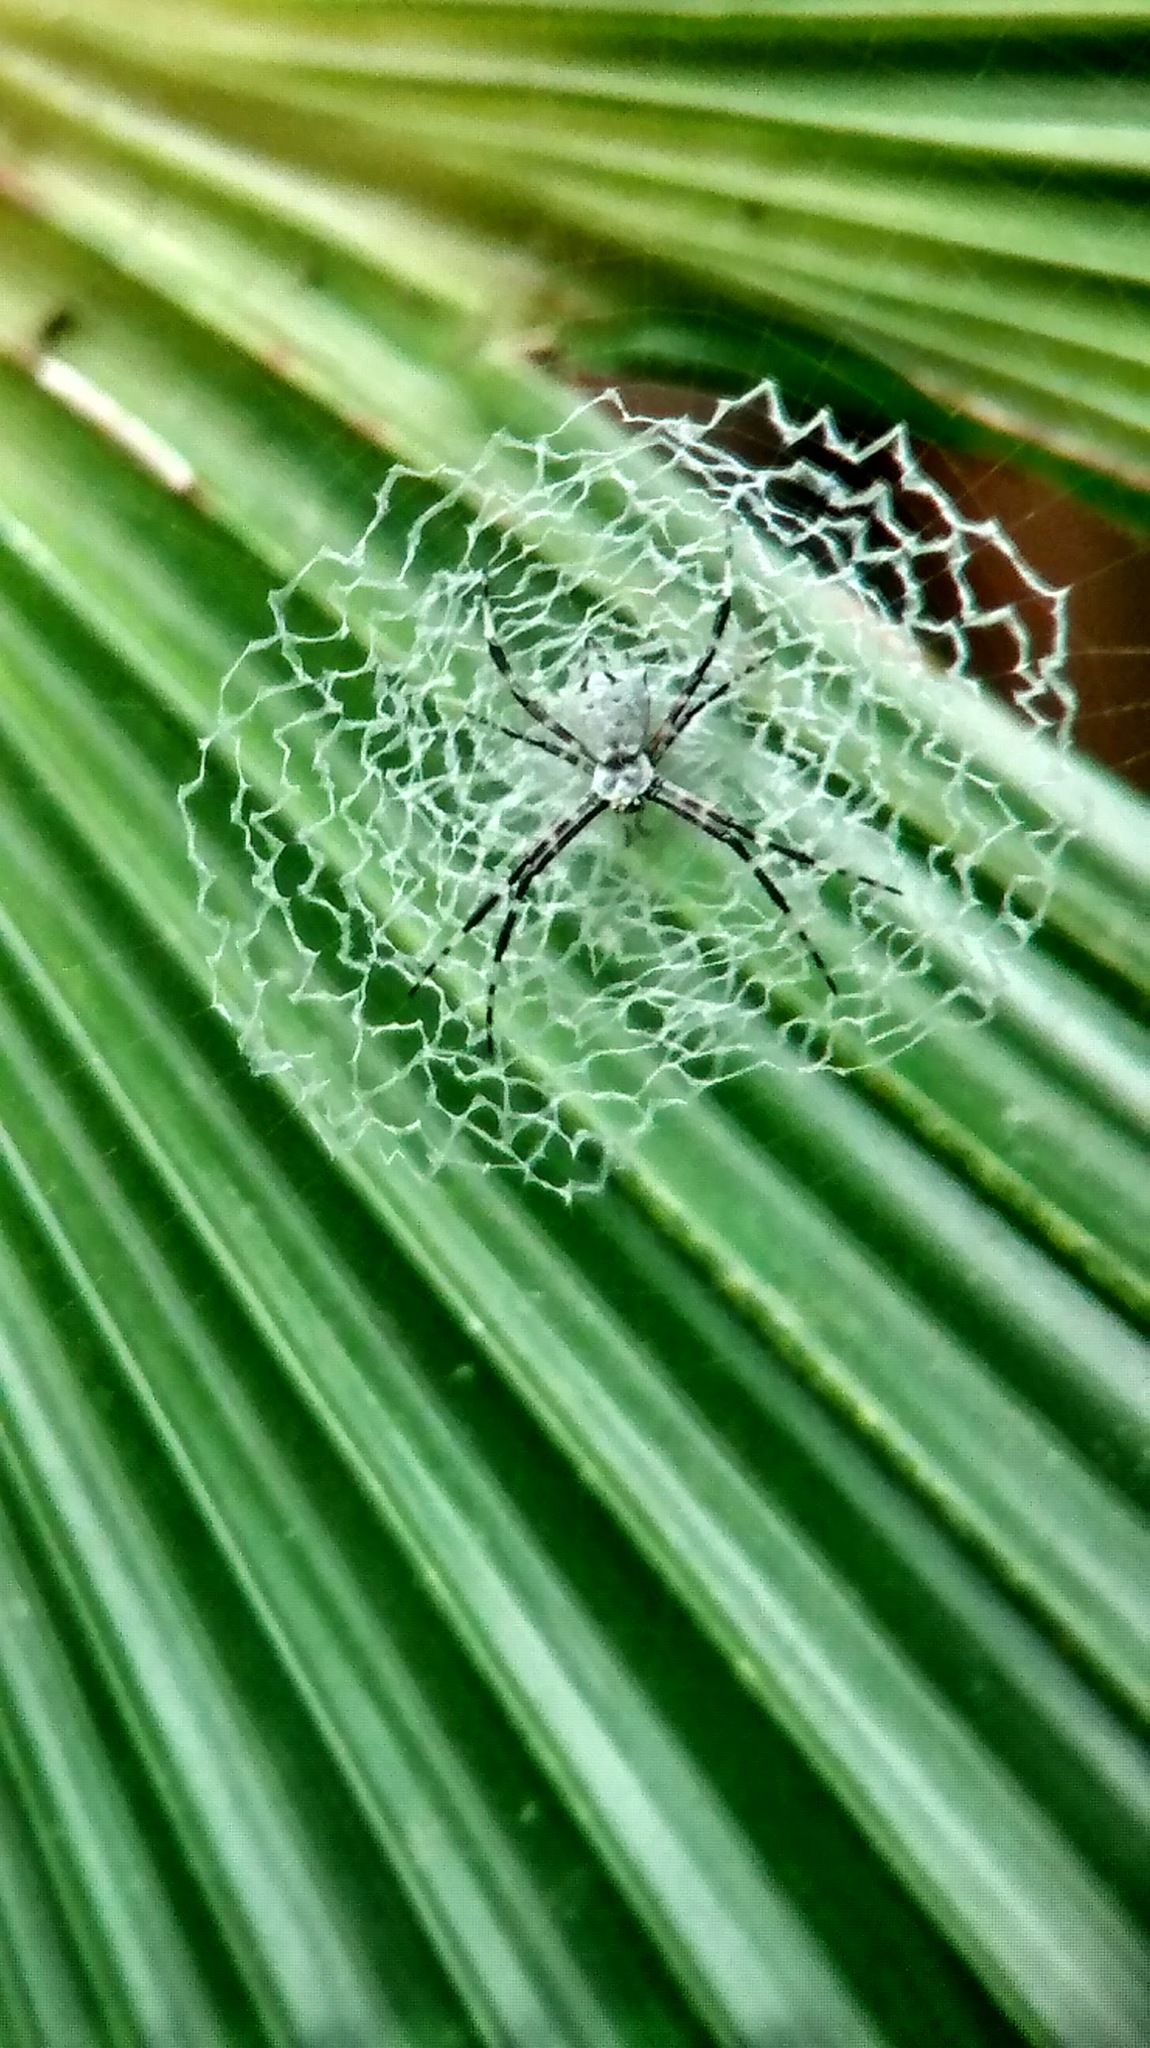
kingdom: Animalia
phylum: Arthropoda
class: Arachnida
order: Araneae
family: Araneidae
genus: Argiope
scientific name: Argiope submaronica
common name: Orb weavers
